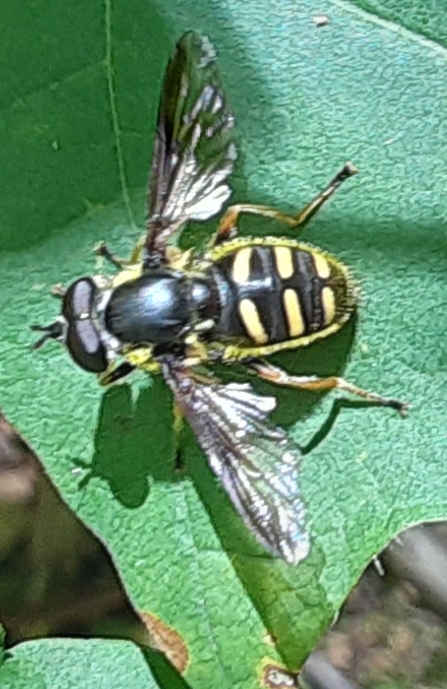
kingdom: Animalia
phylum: Arthropoda
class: Insecta
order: Diptera
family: Syrphidae
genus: Sericomyia
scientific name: Sericomyia chrysotoxoides
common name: Oblique-banded pond fly
